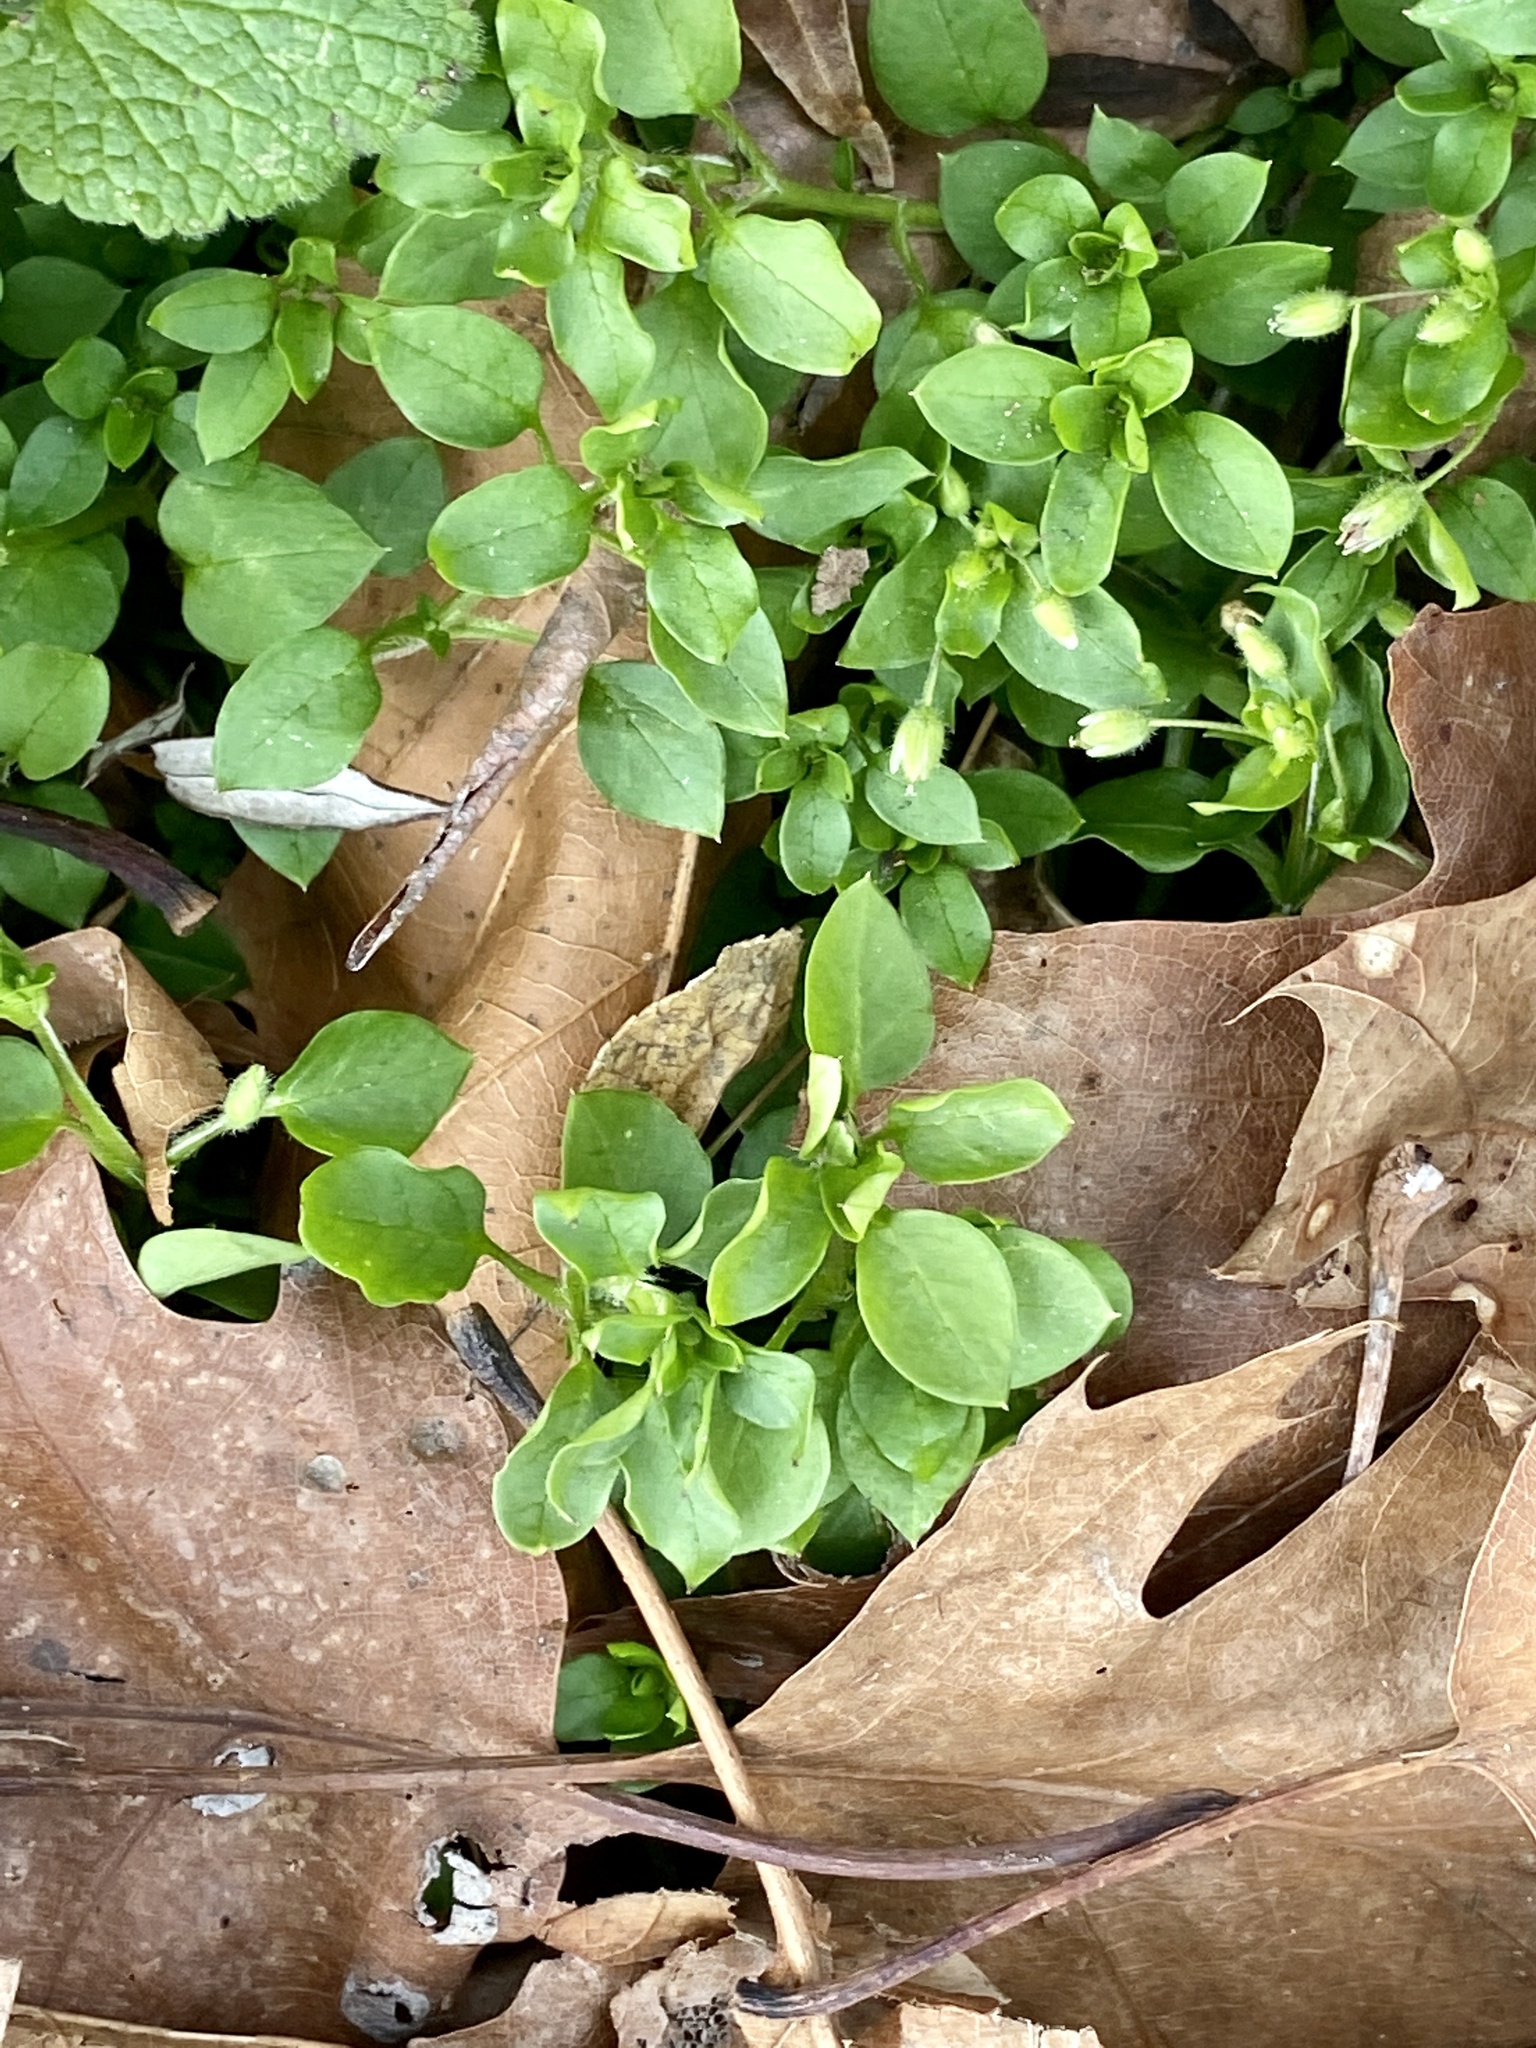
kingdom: Plantae
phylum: Tracheophyta
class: Magnoliopsida
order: Caryophyllales
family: Caryophyllaceae
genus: Stellaria
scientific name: Stellaria media
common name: Common chickweed
